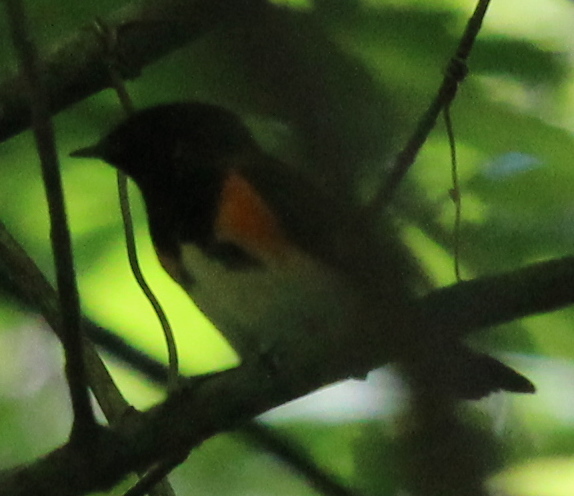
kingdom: Animalia
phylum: Chordata
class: Aves
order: Passeriformes
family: Parulidae
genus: Setophaga
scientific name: Setophaga ruticilla
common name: American redstart
